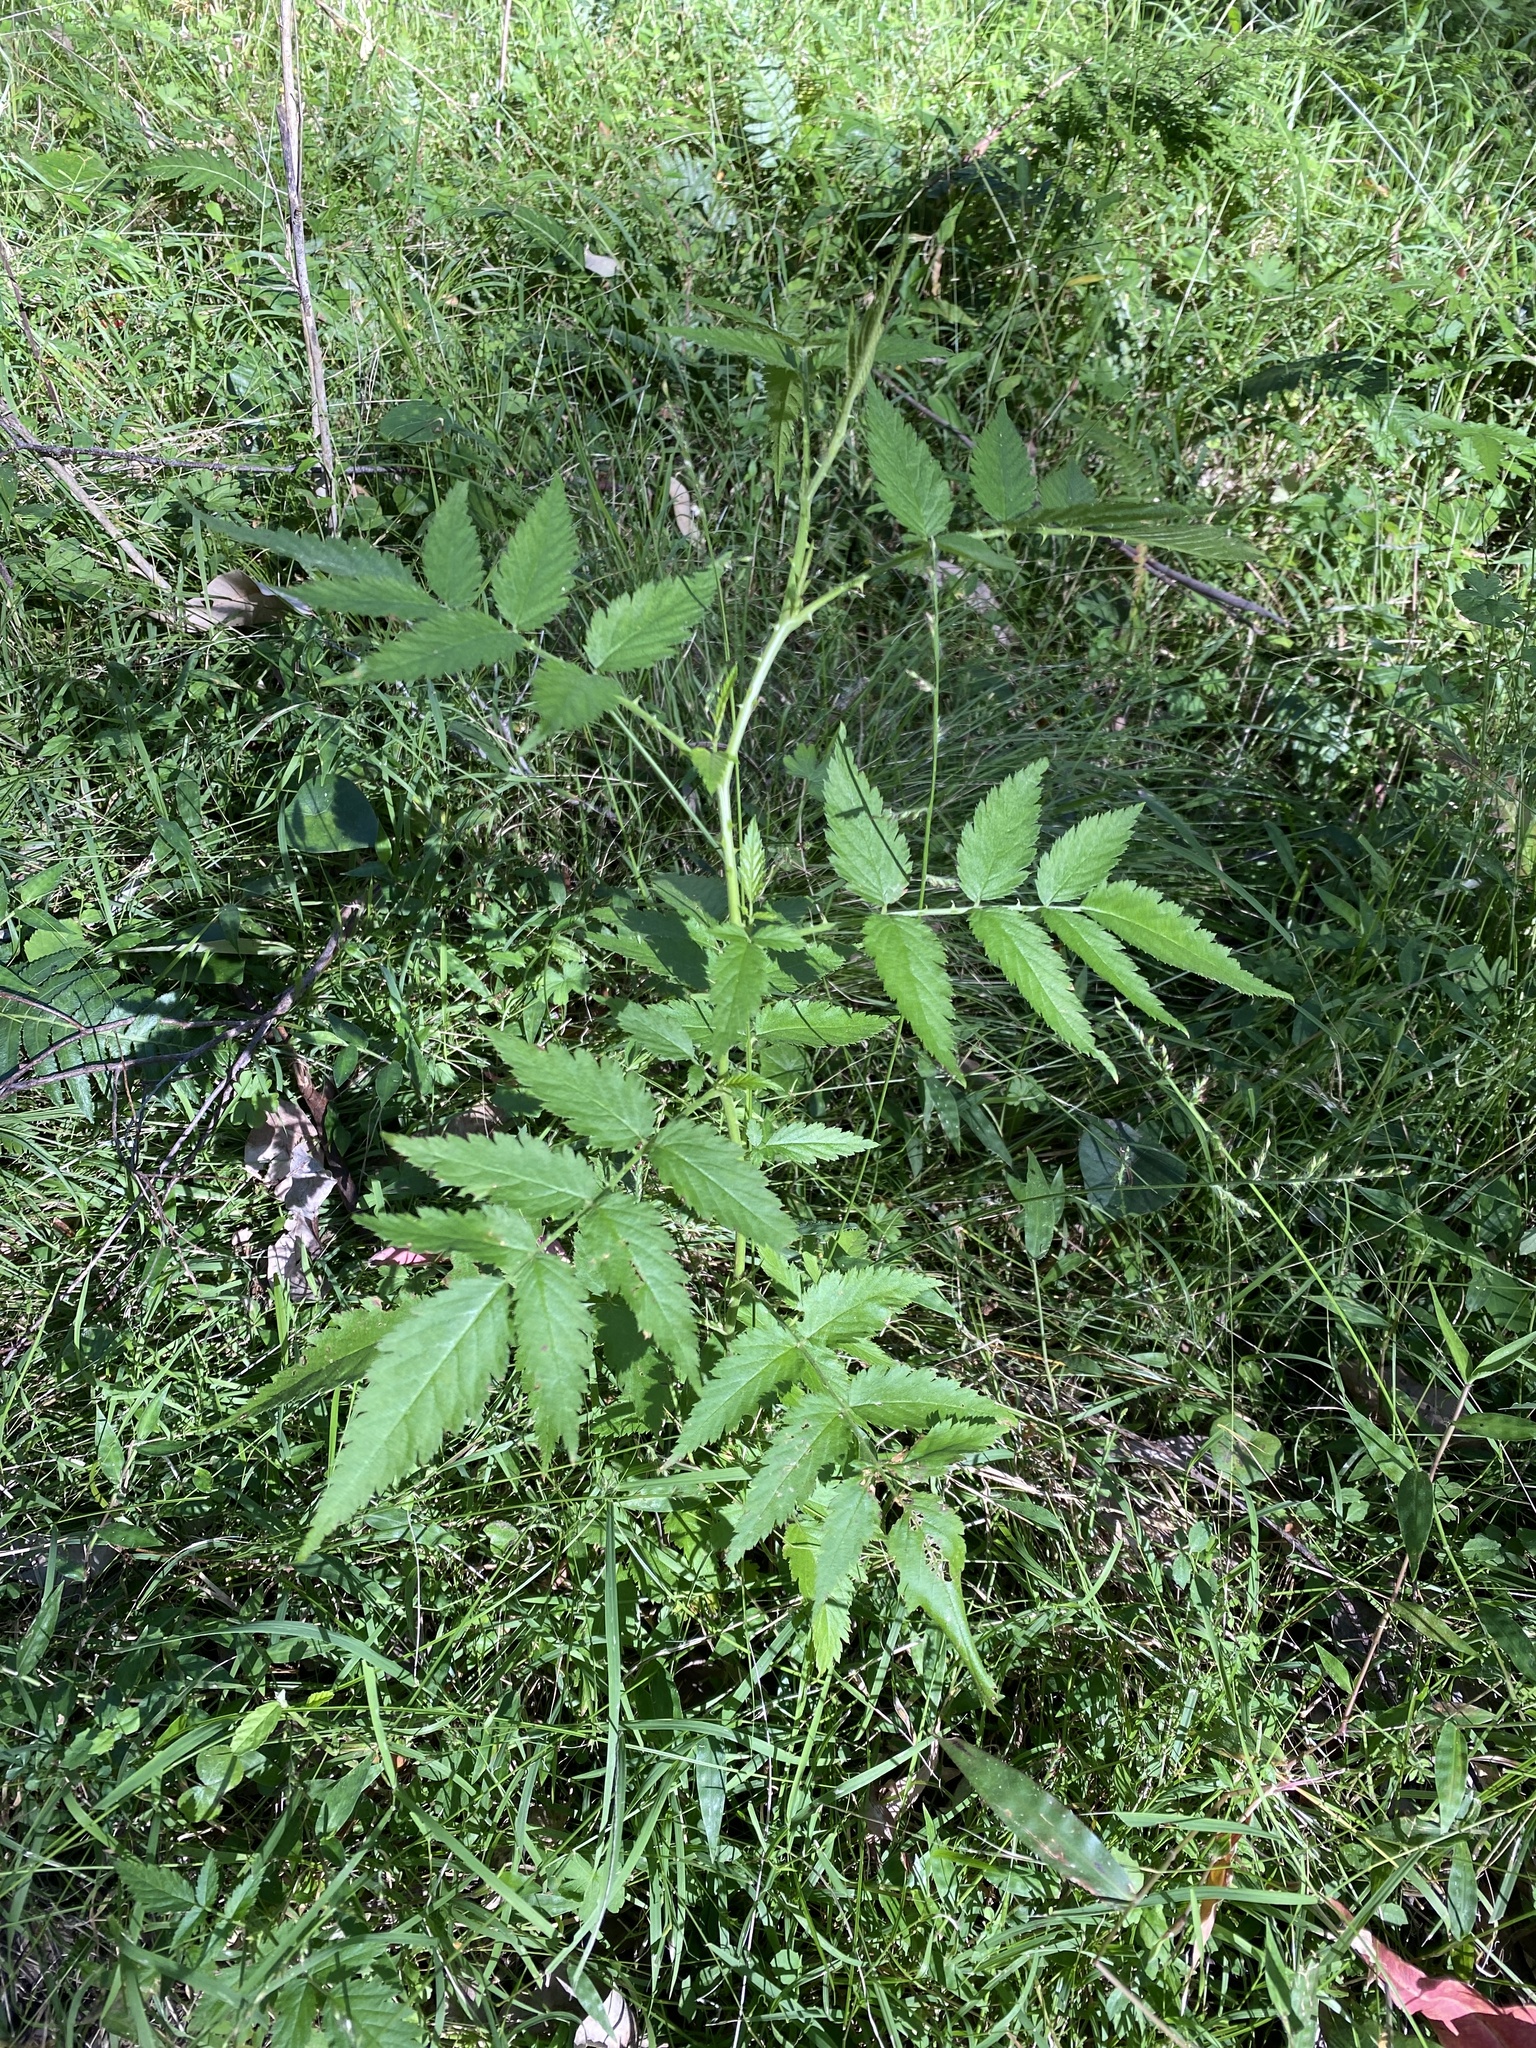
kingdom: Plantae
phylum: Tracheophyta
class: Magnoliopsida
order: Rosales
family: Rosaceae
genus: Rubus
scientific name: Rubus rosifolius
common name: Roseleaf raspberry
